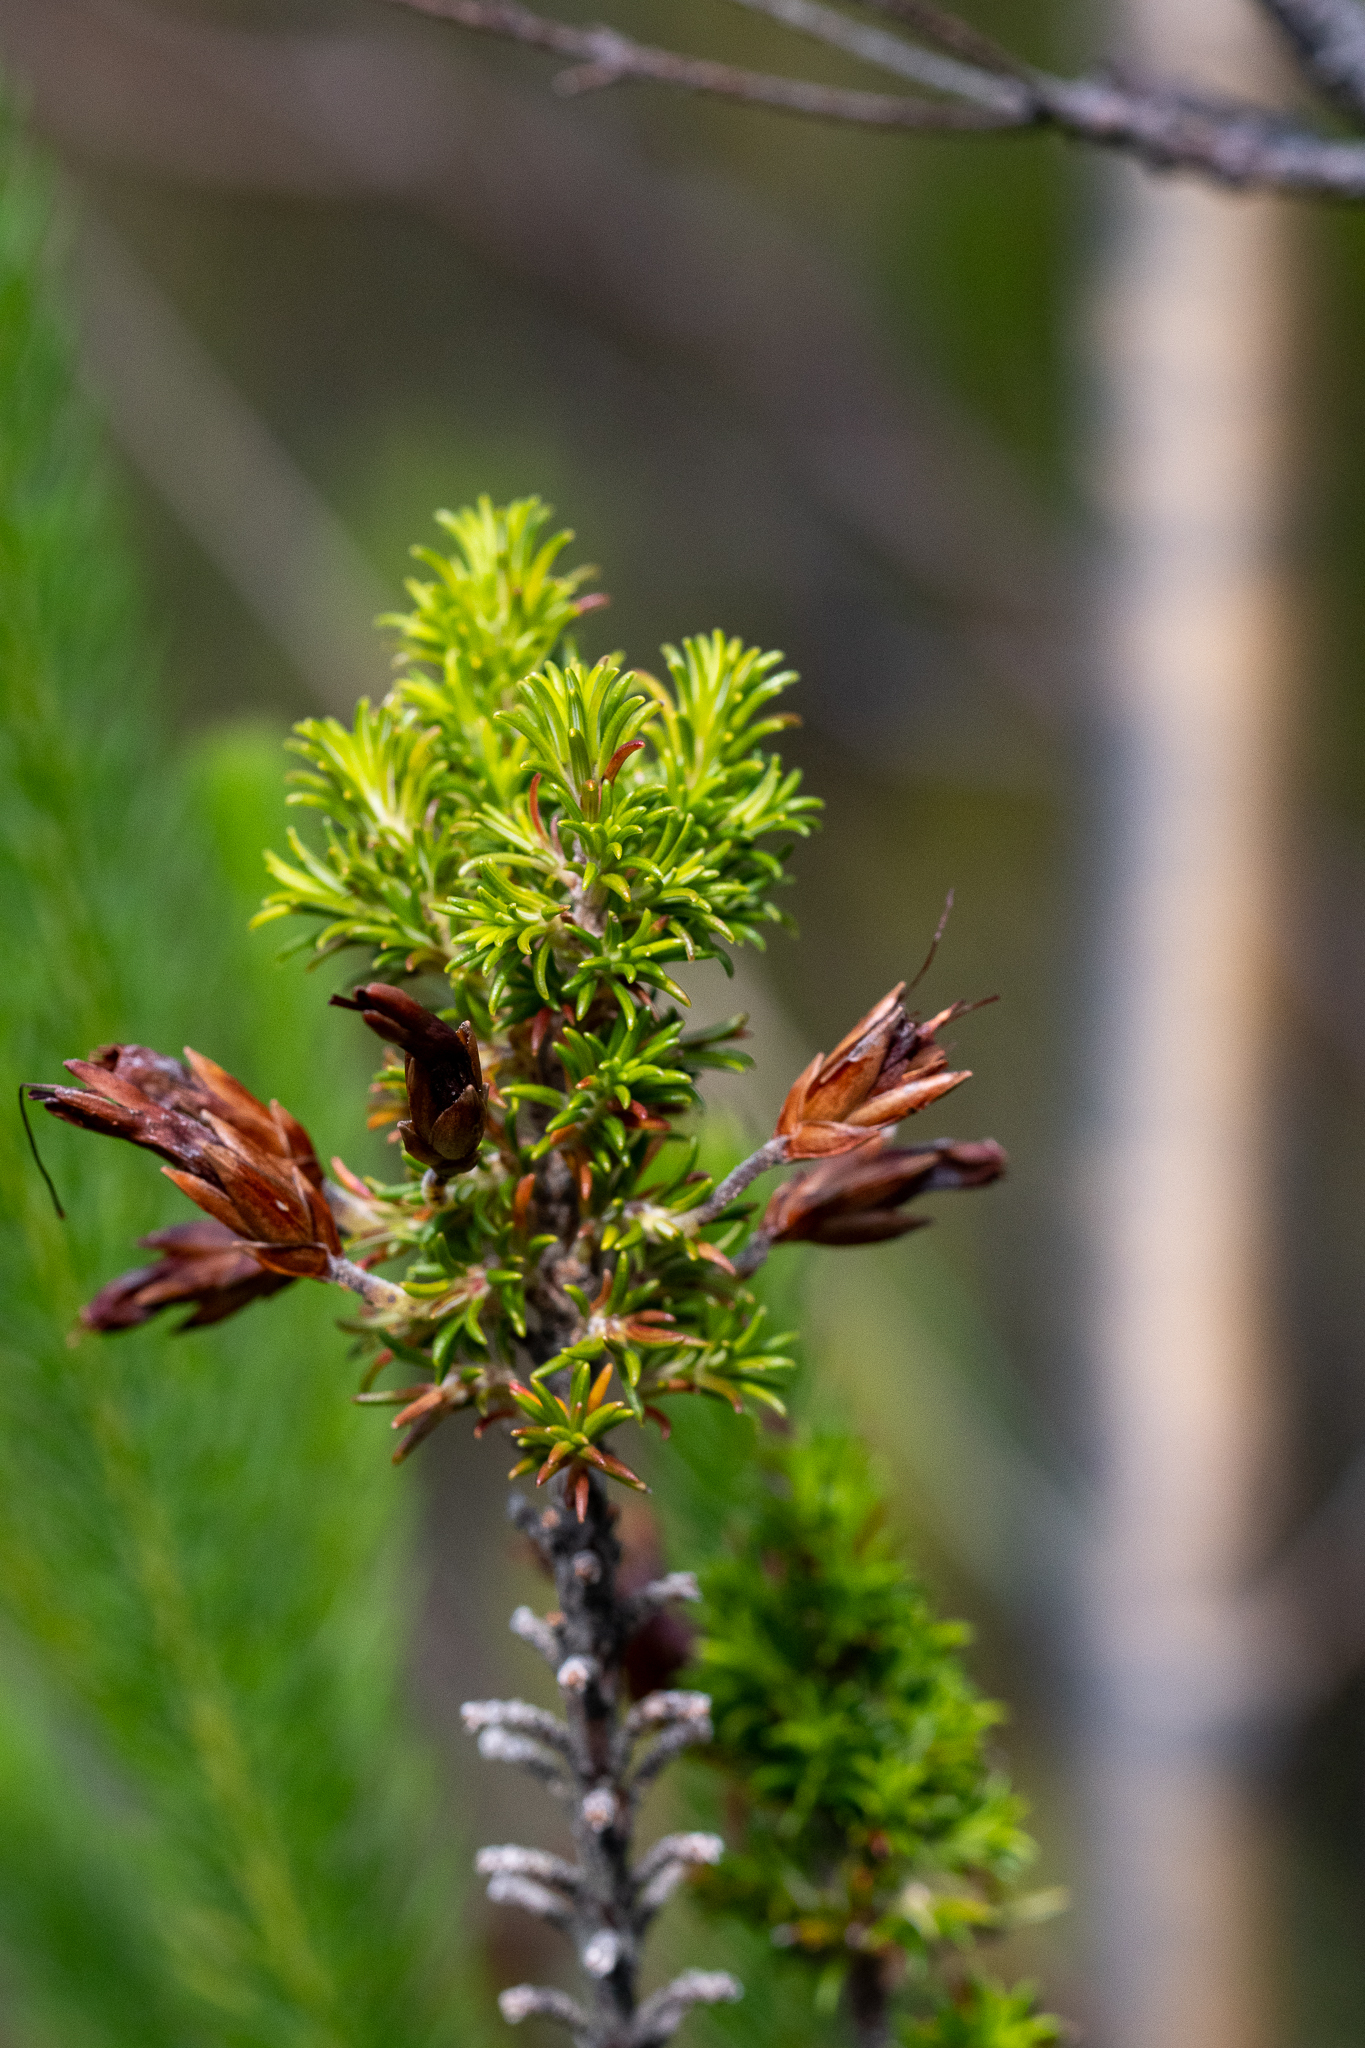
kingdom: Plantae
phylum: Tracheophyta
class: Magnoliopsida
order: Ericales
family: Ericaceae
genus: Erica
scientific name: Erica coccinea
